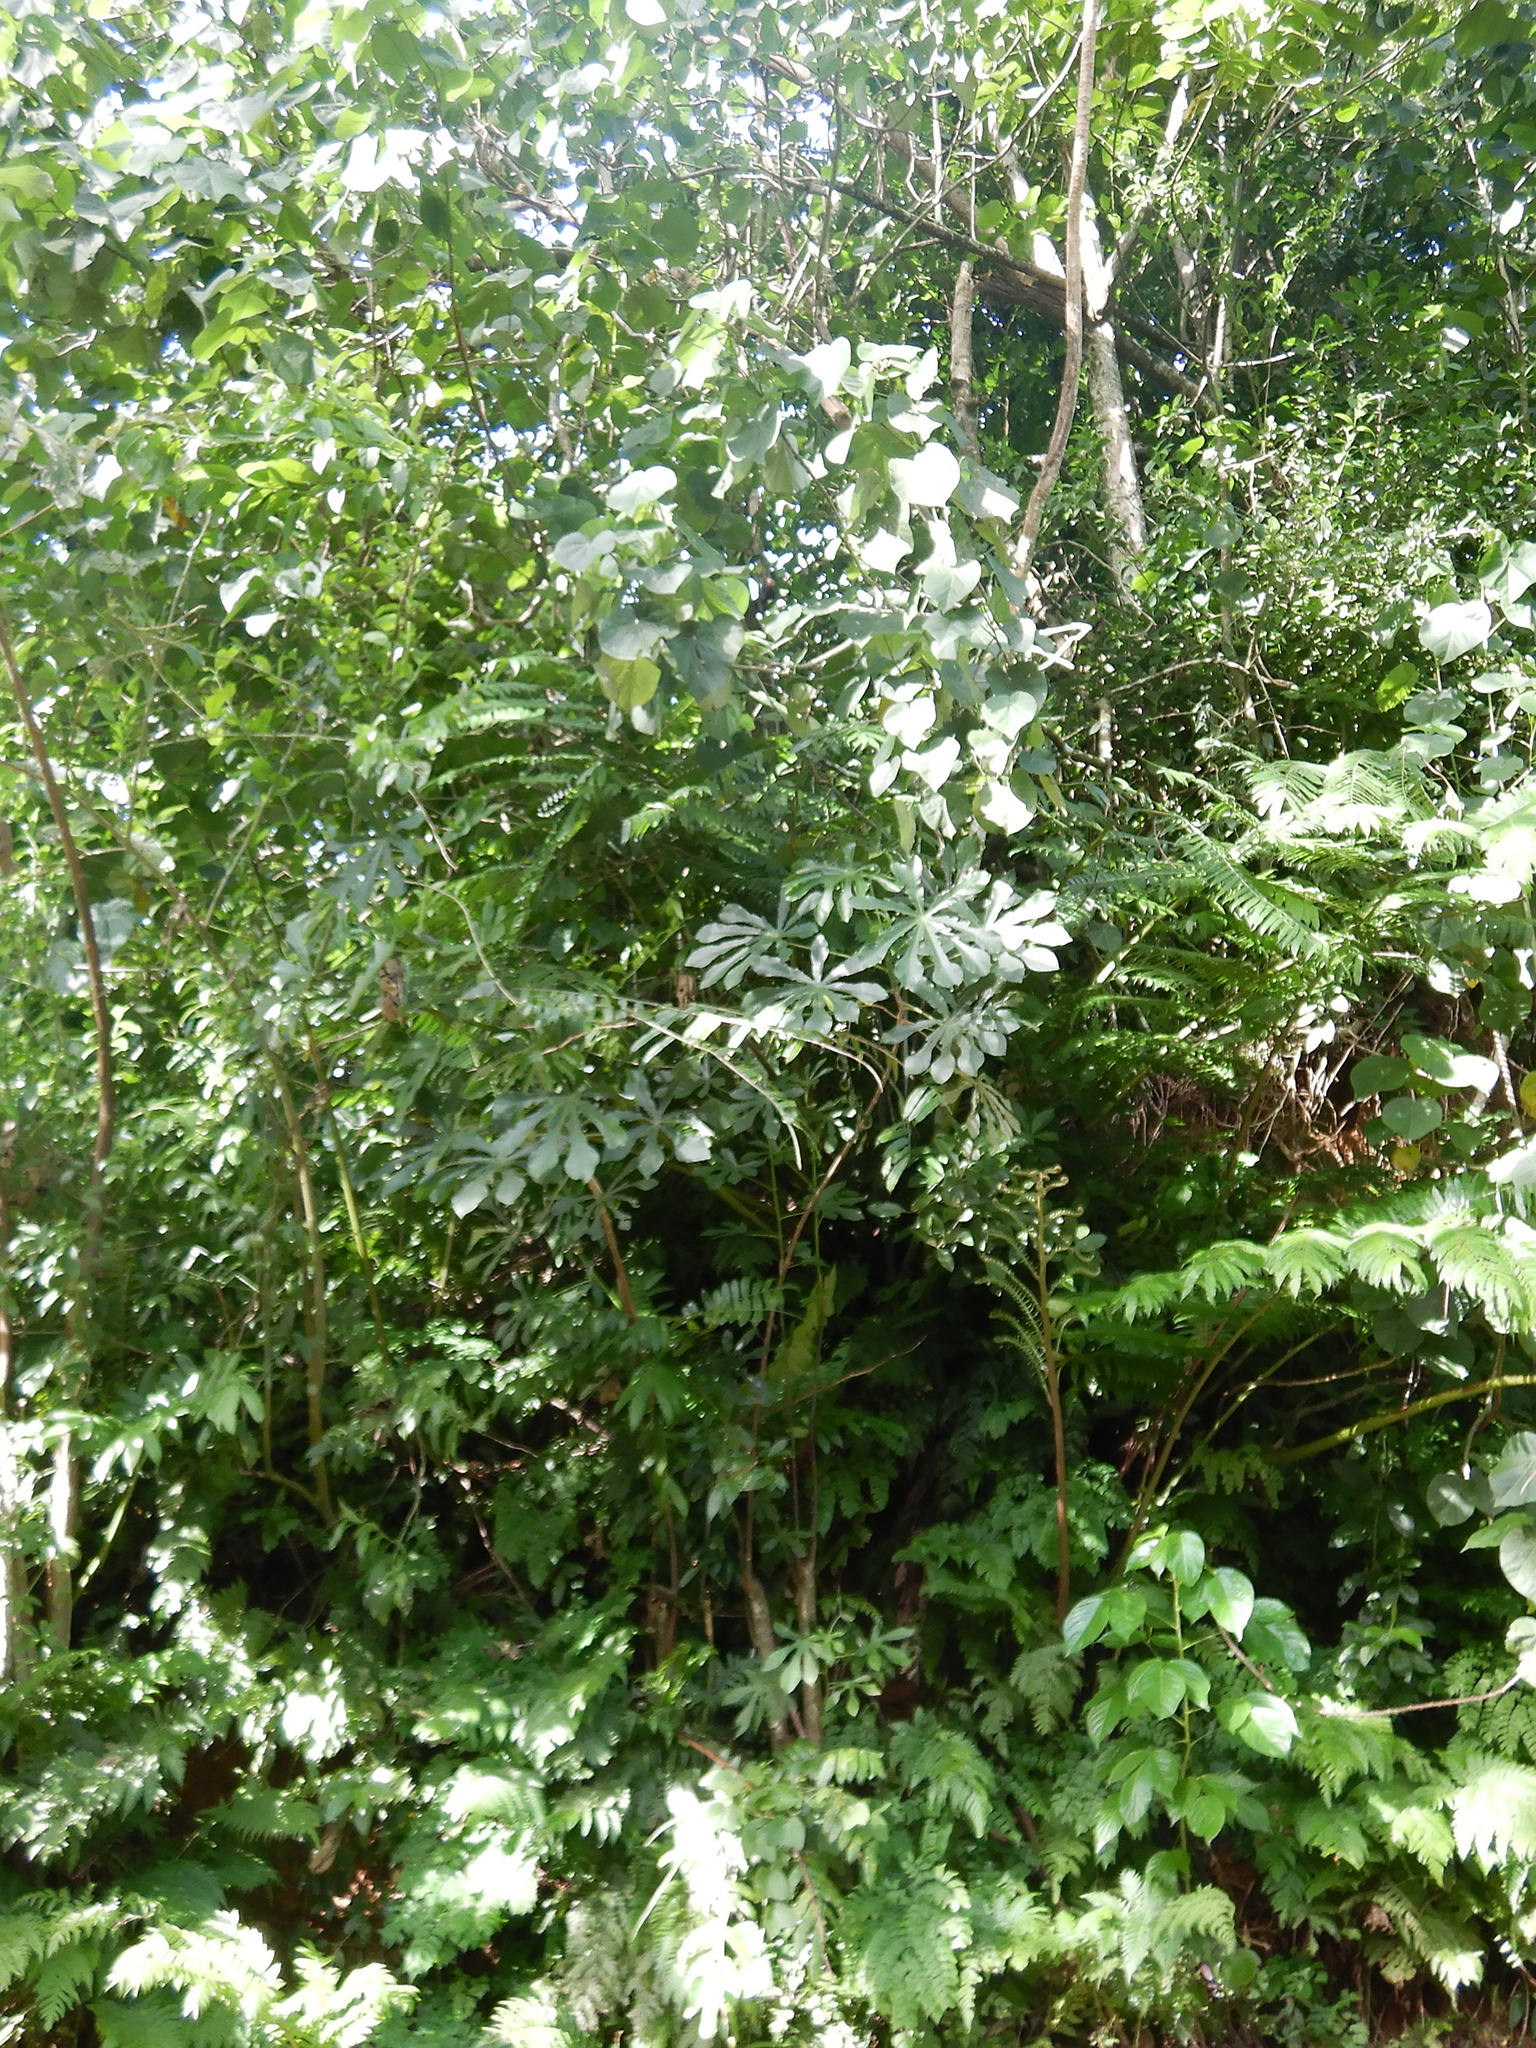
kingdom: Plantae
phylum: Tracheophyta
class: Magnoliopsida
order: Rosales
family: Urticaceae
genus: Cecropia
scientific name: Cecropia pachystachya
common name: Ambay pumpwood
